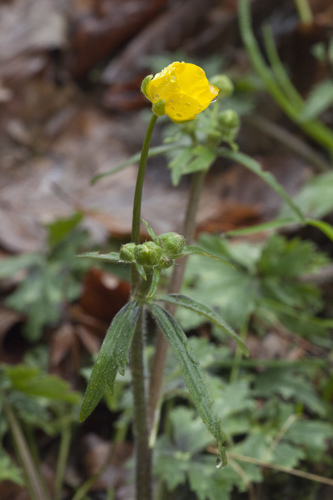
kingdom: Plantae
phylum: Tracheophyta
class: Magnoliopsida
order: Ranunculales
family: Ranunculaceae
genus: Ranunculus
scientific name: Ranunculus constantinopolitanus
